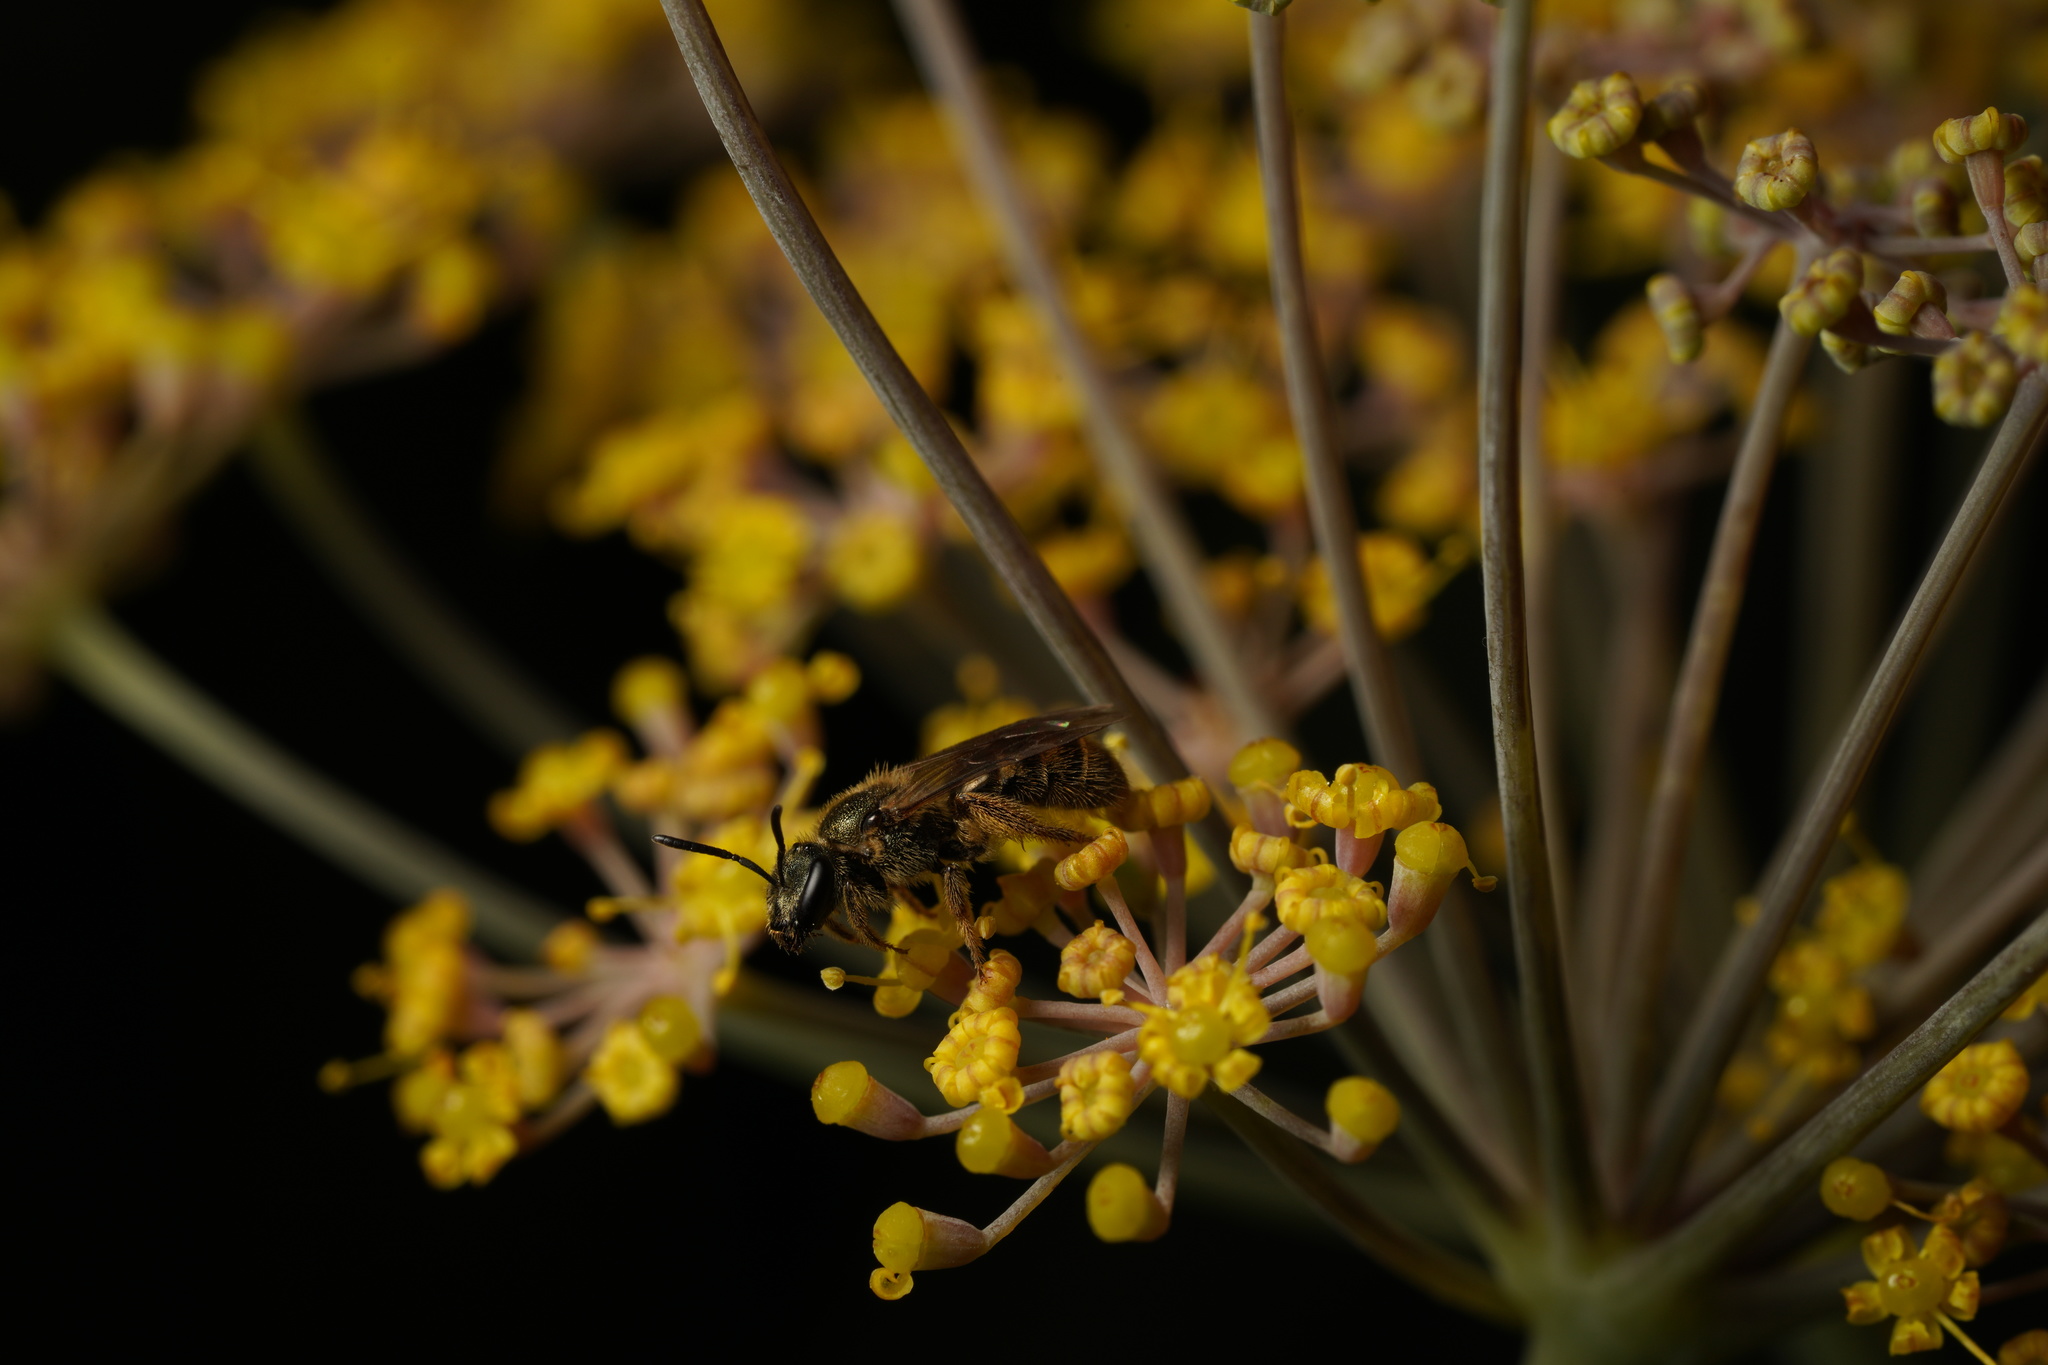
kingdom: Animalia
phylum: Arthropoda
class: Insecta
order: Hymenoptera
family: Halictidae
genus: Dialictus
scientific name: Dialictus
